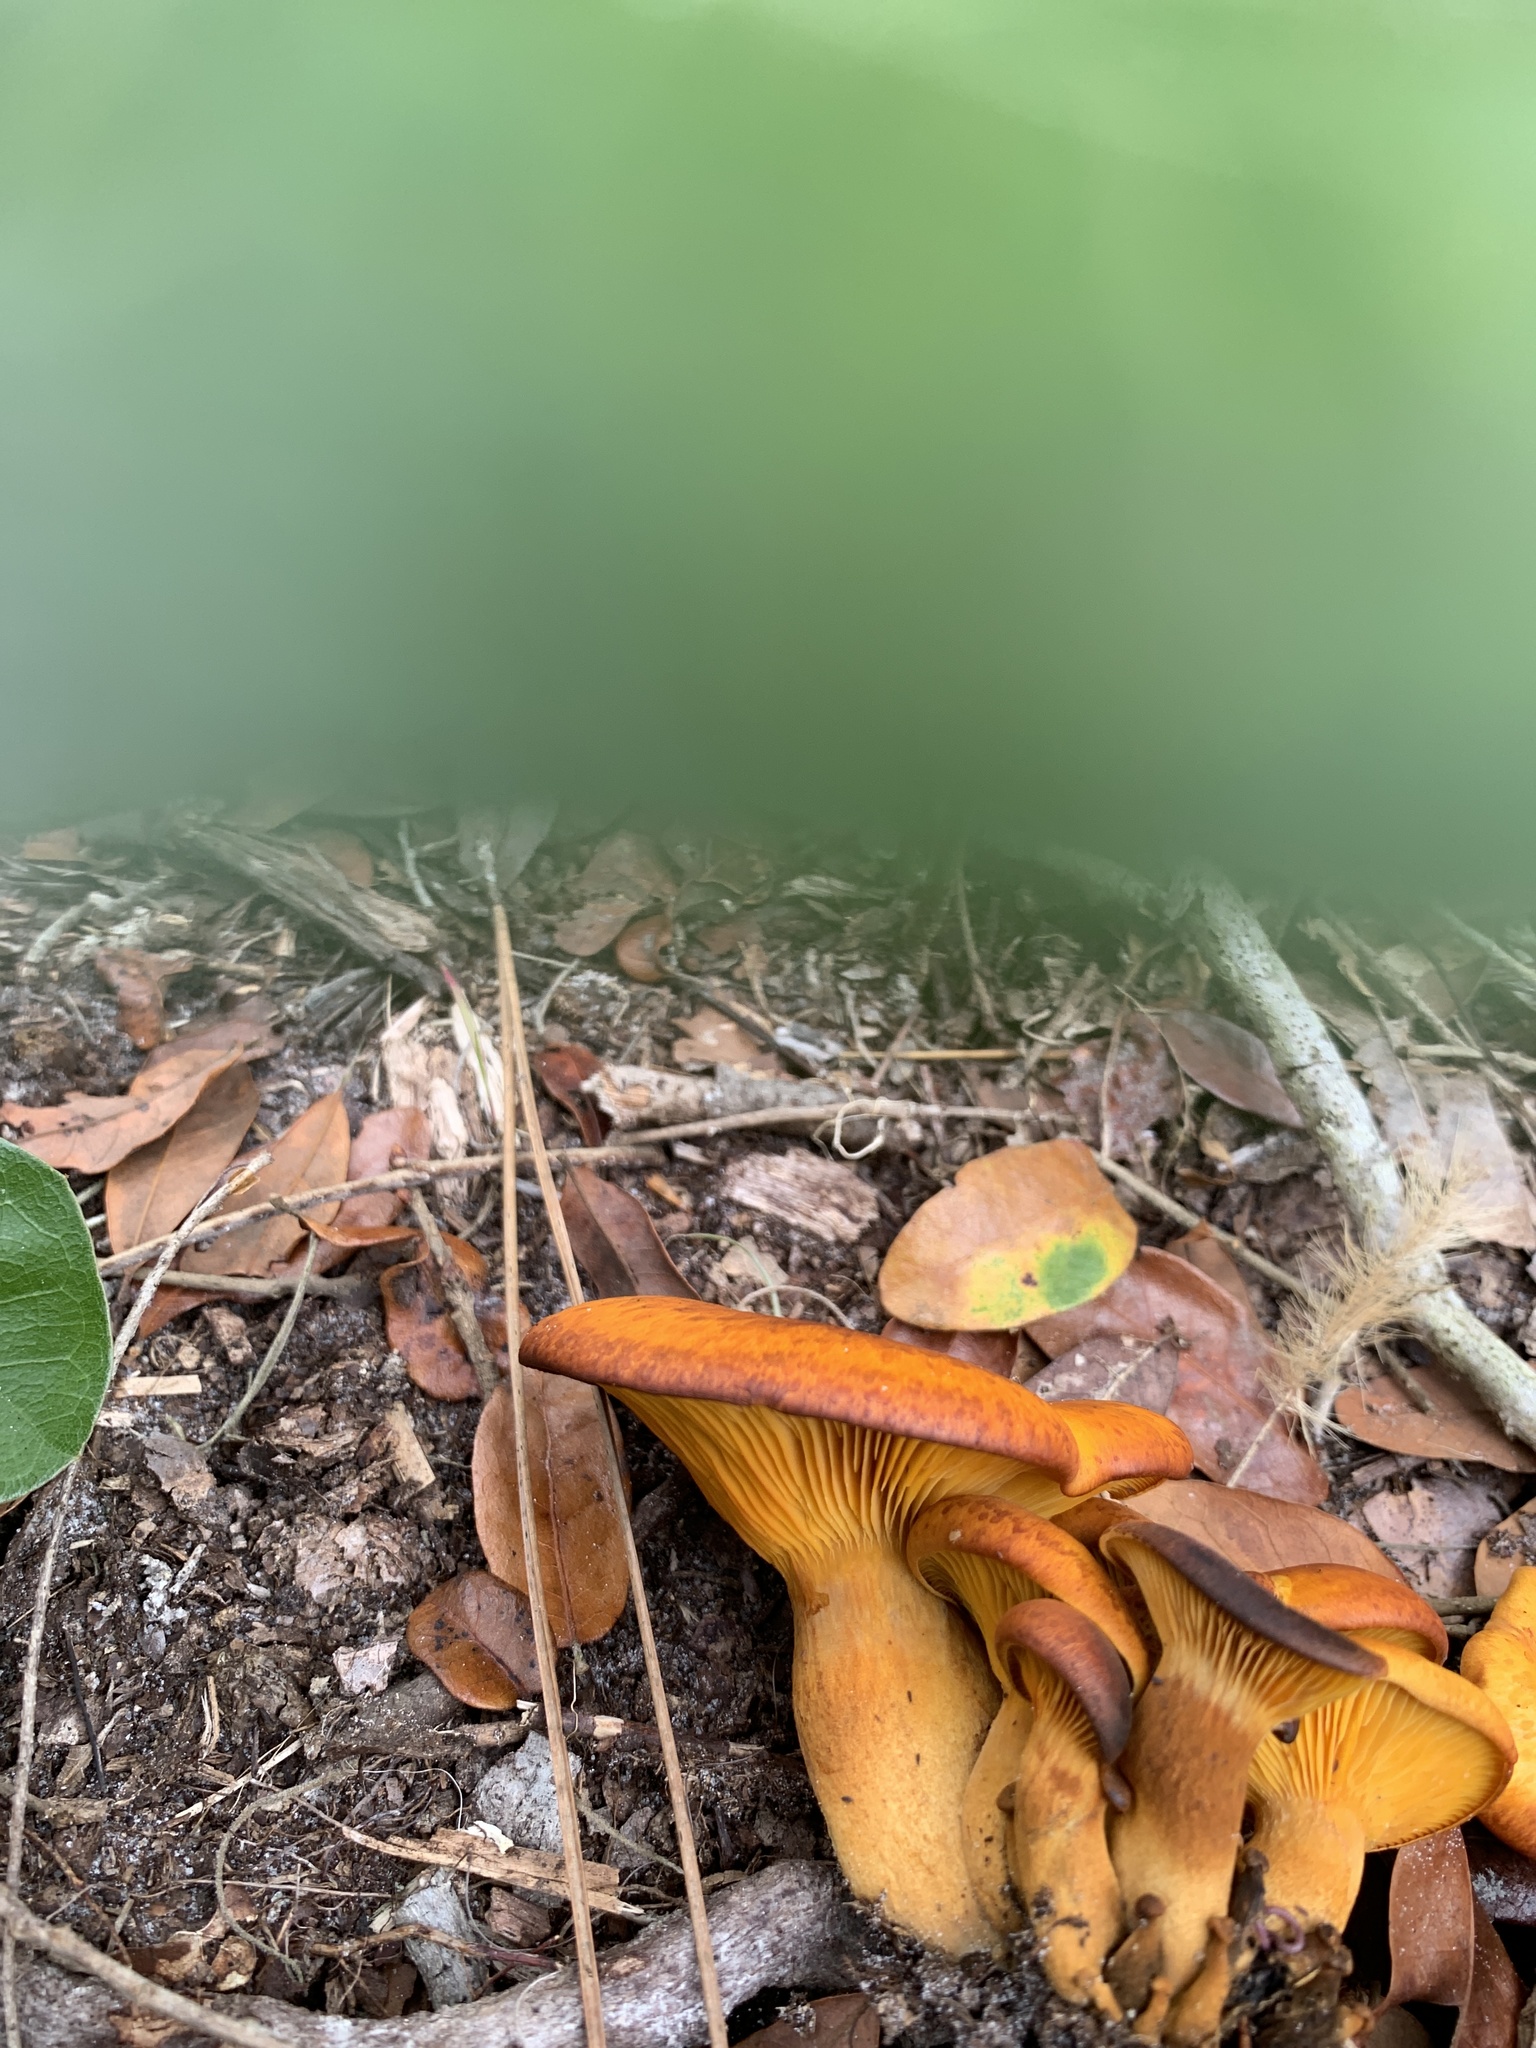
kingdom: Fungi
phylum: Basidiomycota
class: Agaricomycetes
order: Agaricales
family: Omphalotaceae
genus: Omphalotus
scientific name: Omphalotus subilludens
